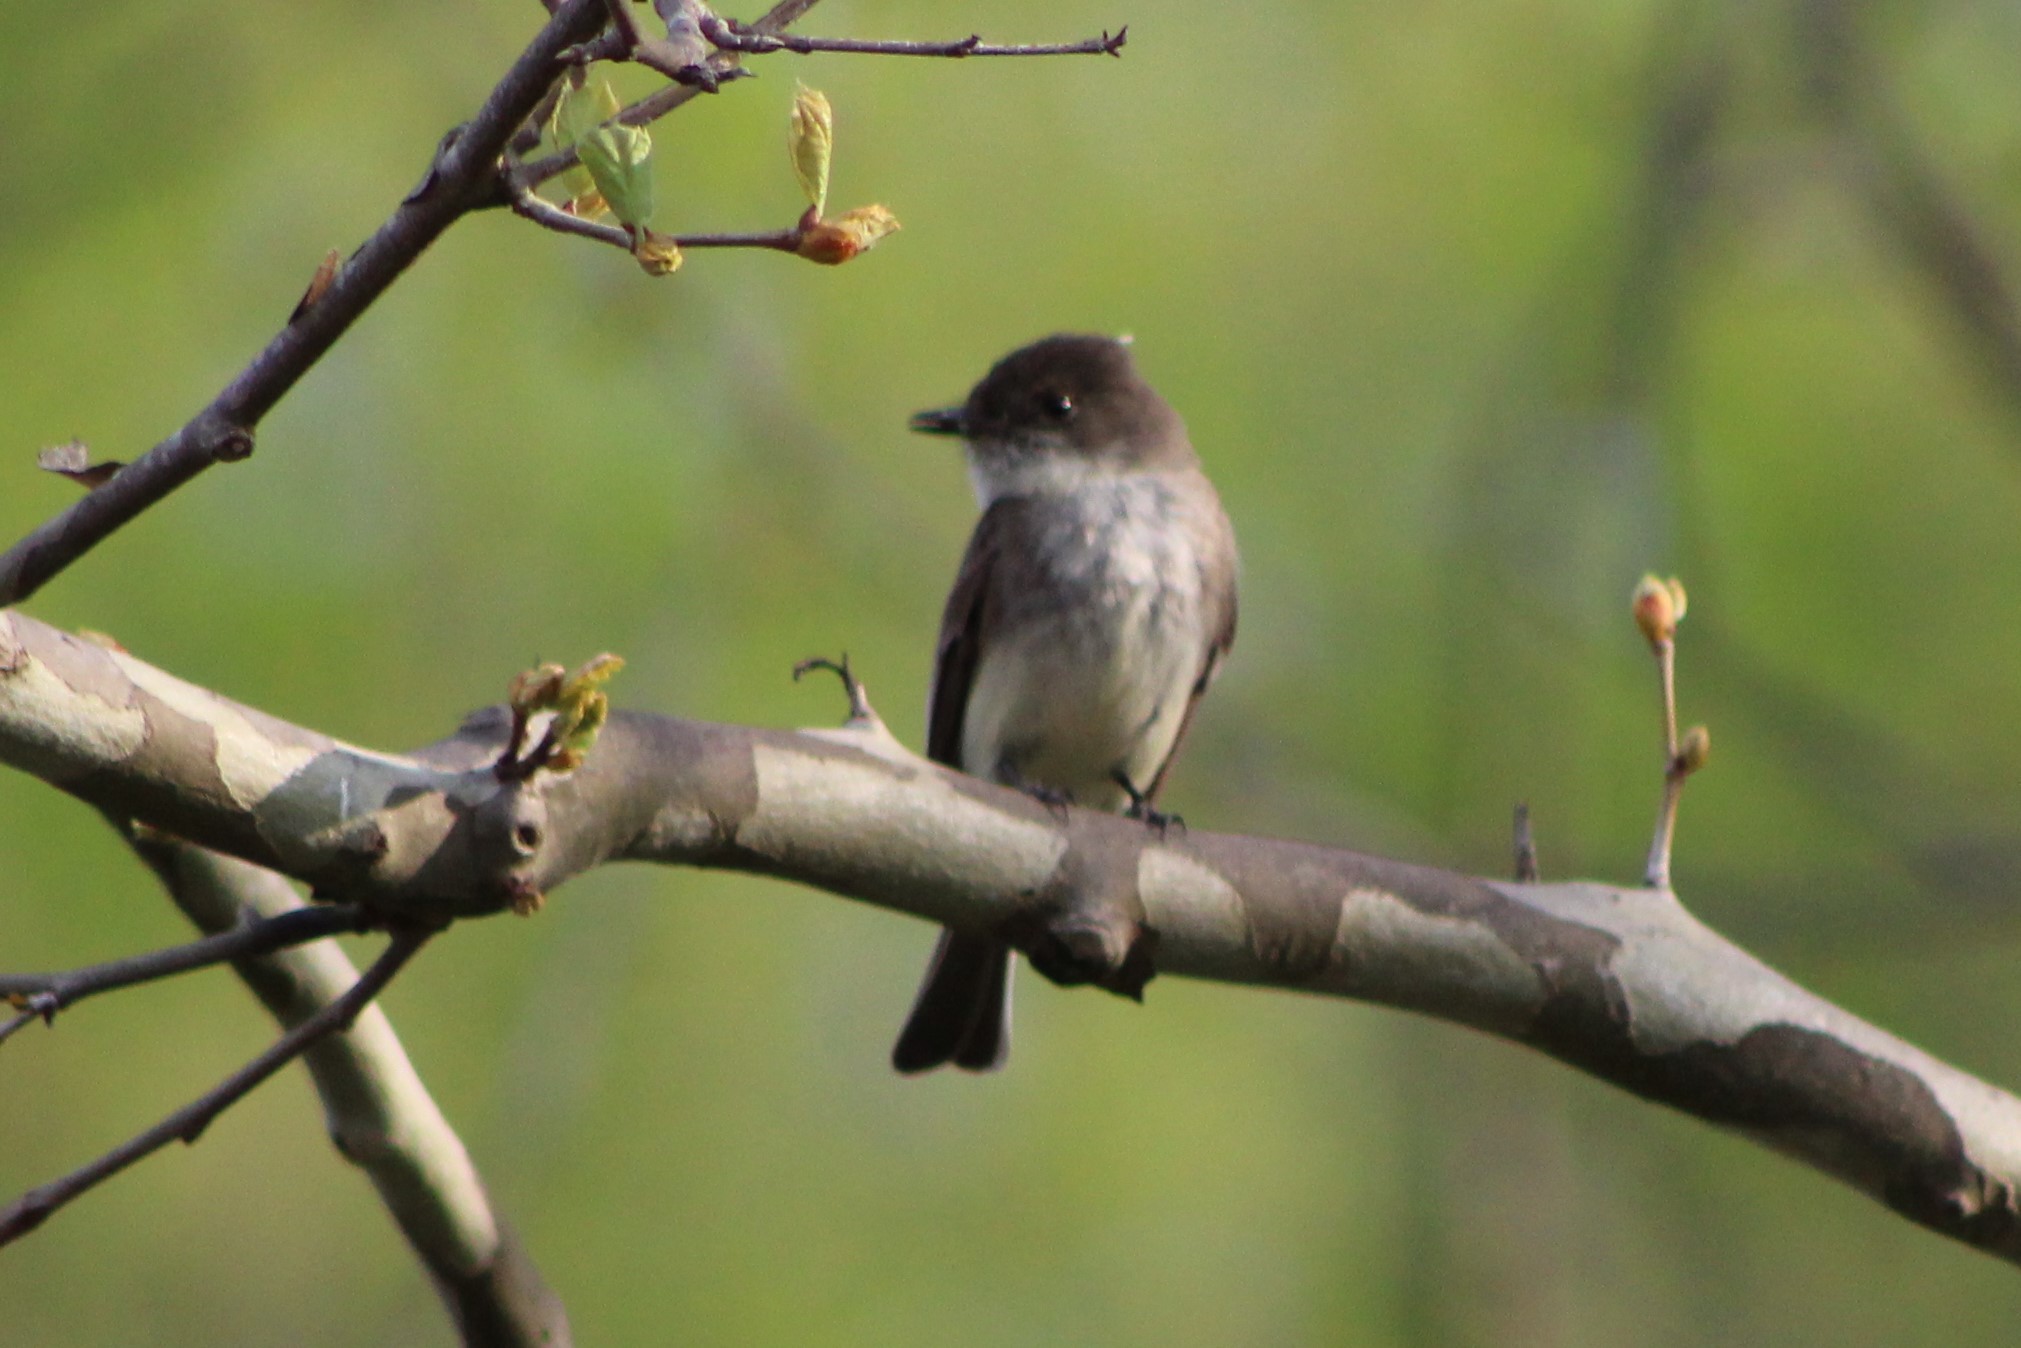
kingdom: Animalia
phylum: Chordata
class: Aves
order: Passeriformes
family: Tyrannidae
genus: Sayornis
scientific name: Sayornis phoebe
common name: Eastern phoebe
